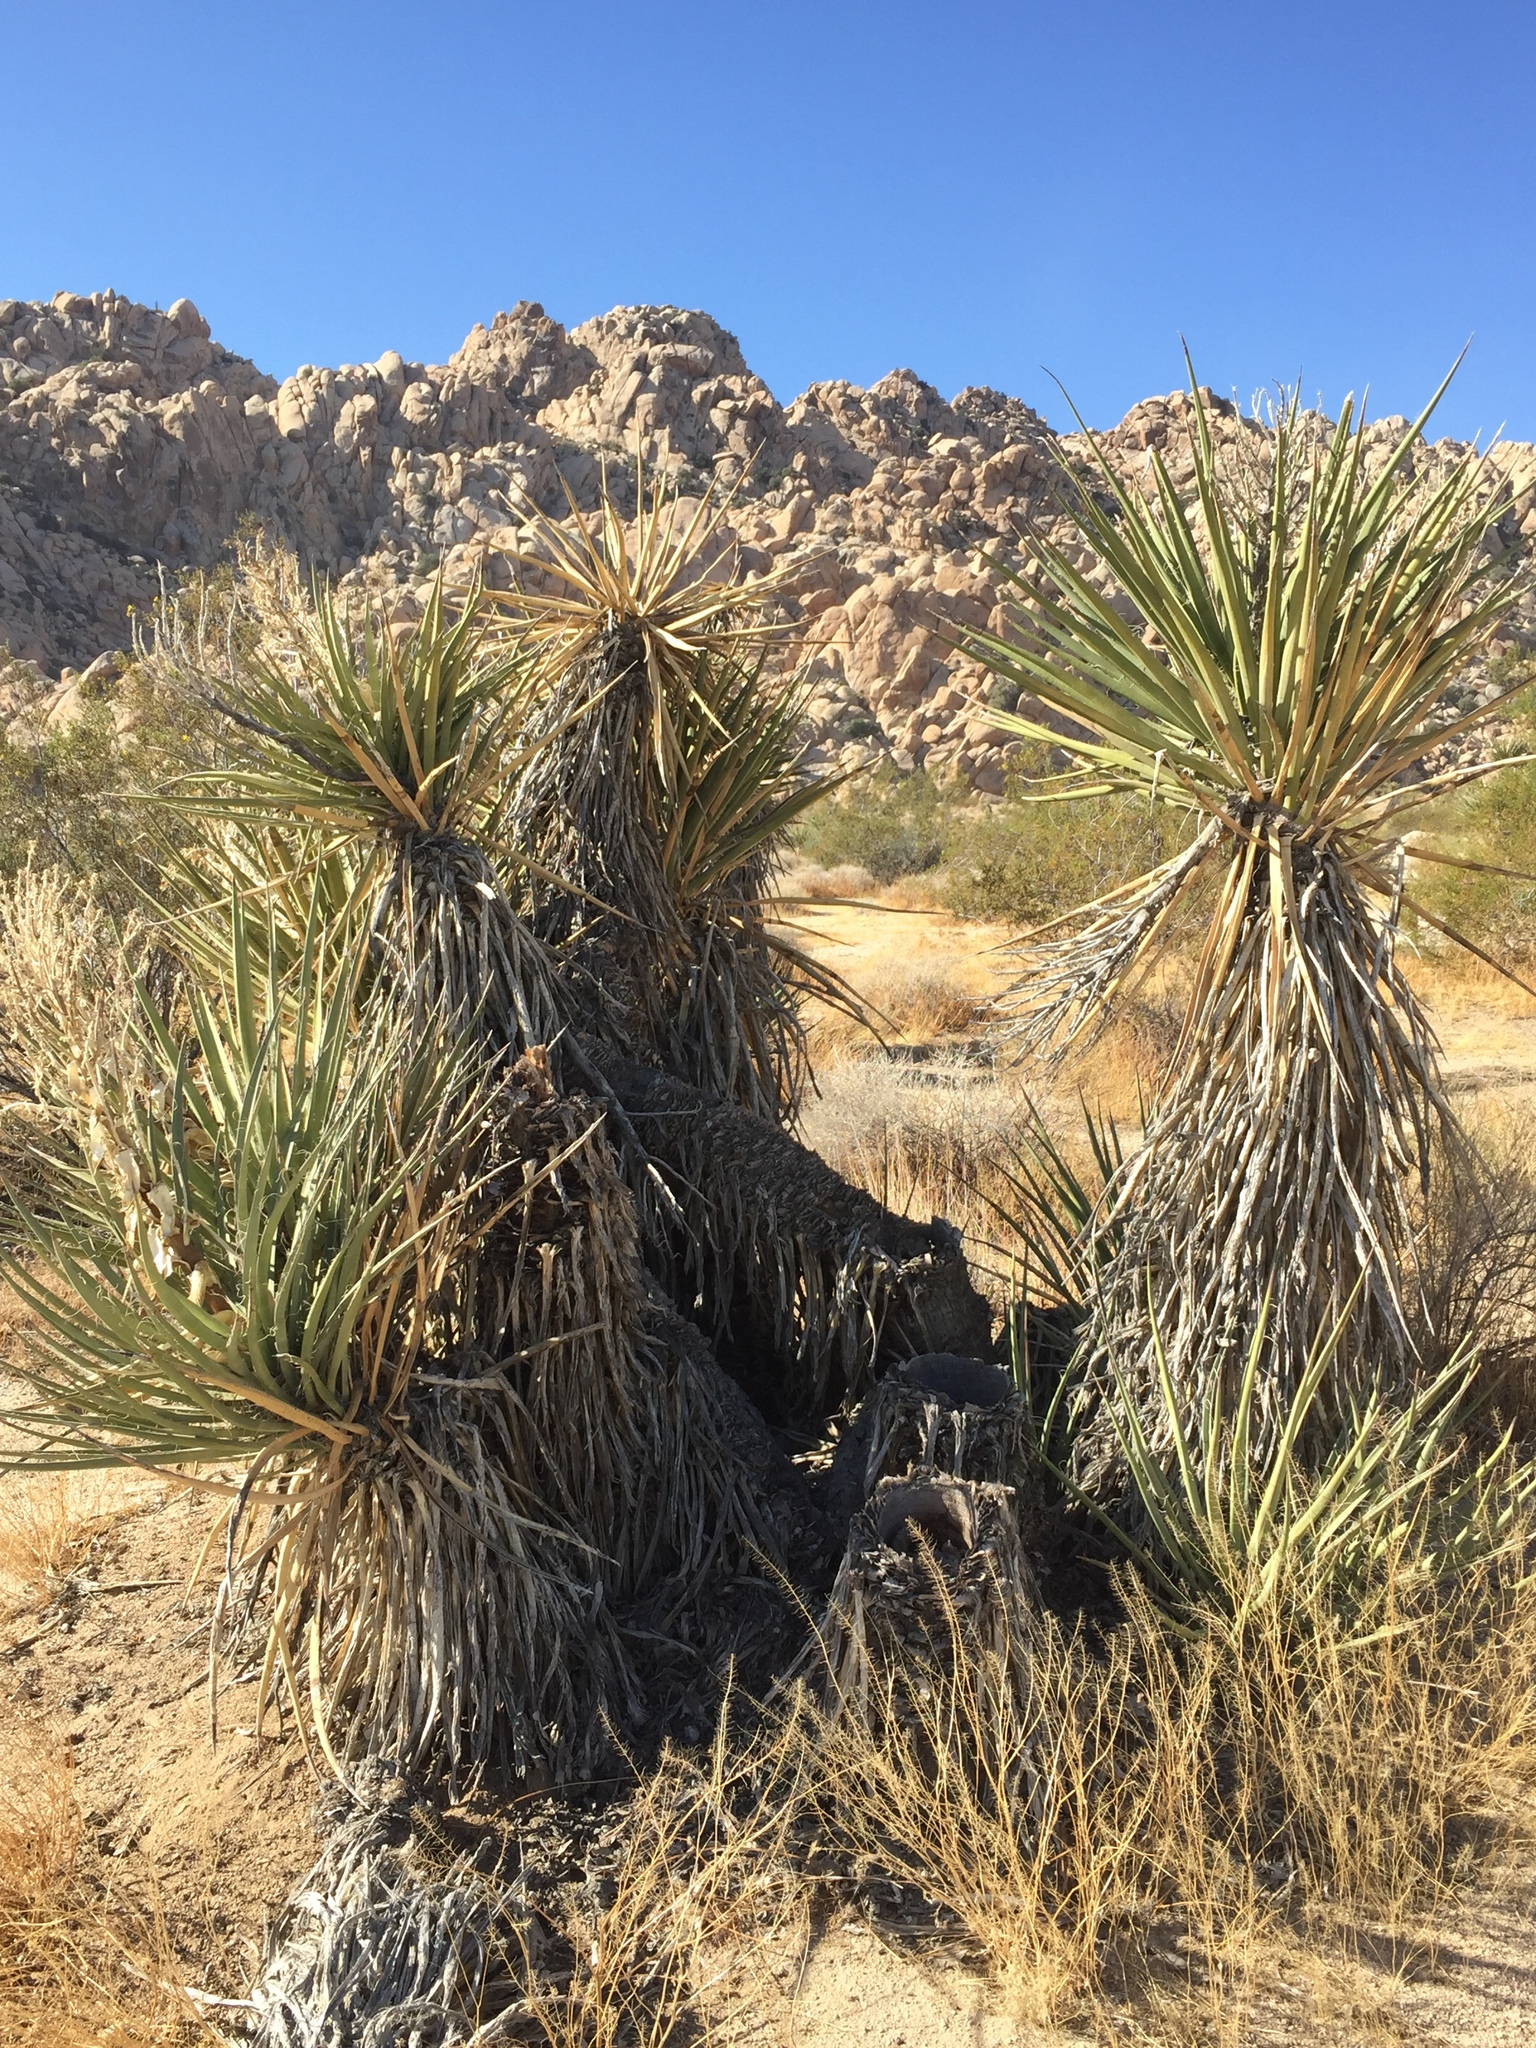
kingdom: Plantae
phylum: Tracheophyta
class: Liliopsida
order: Asparagales
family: Asparagaceae
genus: Yucca
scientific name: Yucca schidigera
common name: Mojave yucca
